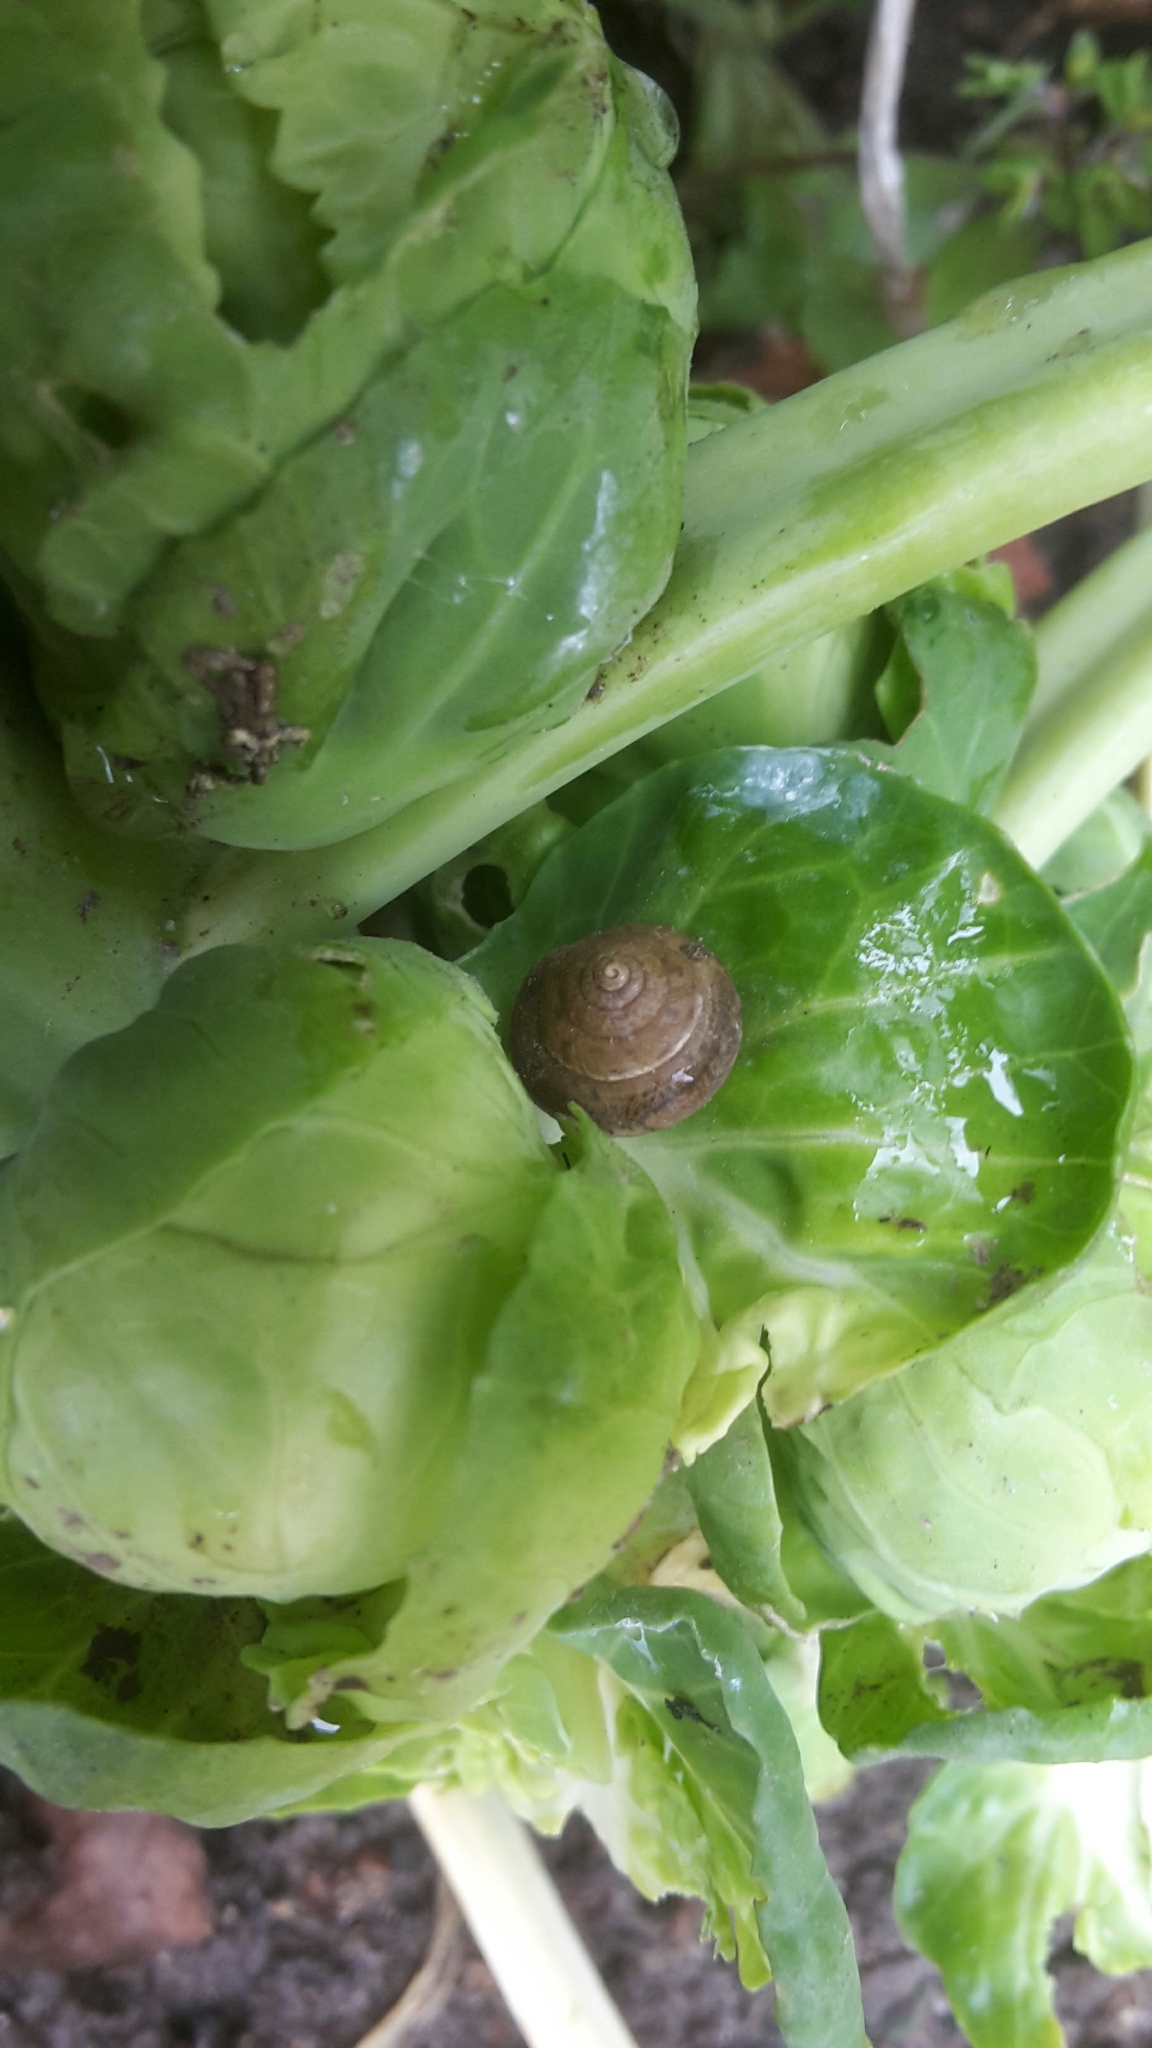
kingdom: Animalia
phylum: Mollusca
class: Gastropoda
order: Stylommatophora
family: Hygromiidae
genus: Hygromia
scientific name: Hygromia cinctella
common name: Girdled snail
